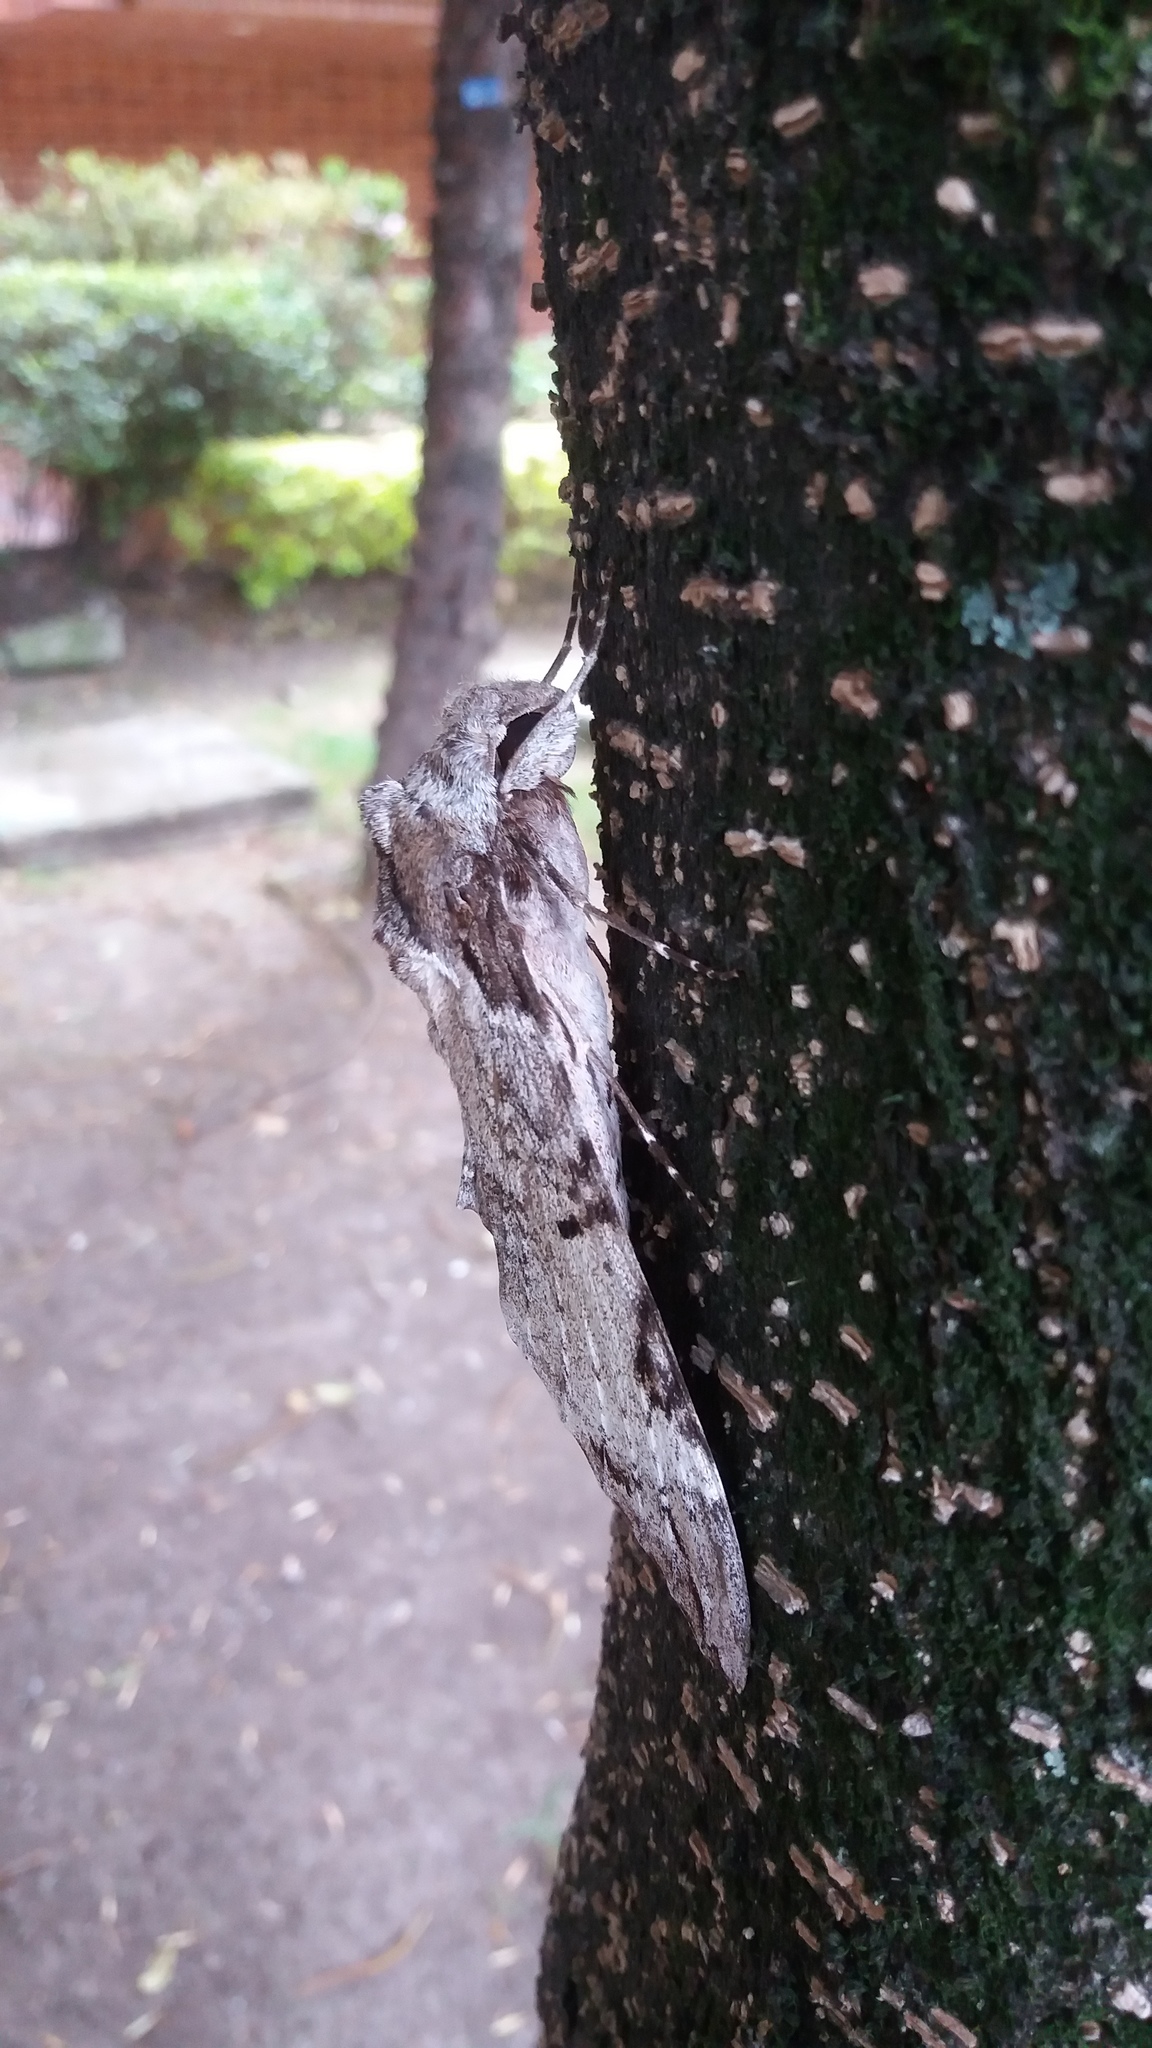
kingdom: Animalia
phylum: Arthropoda
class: Insecta
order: Lepidoptera
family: Sphingidae
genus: Pseudosphinx
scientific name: Pseudosphinx tetrio
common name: Tetrio sphinx
